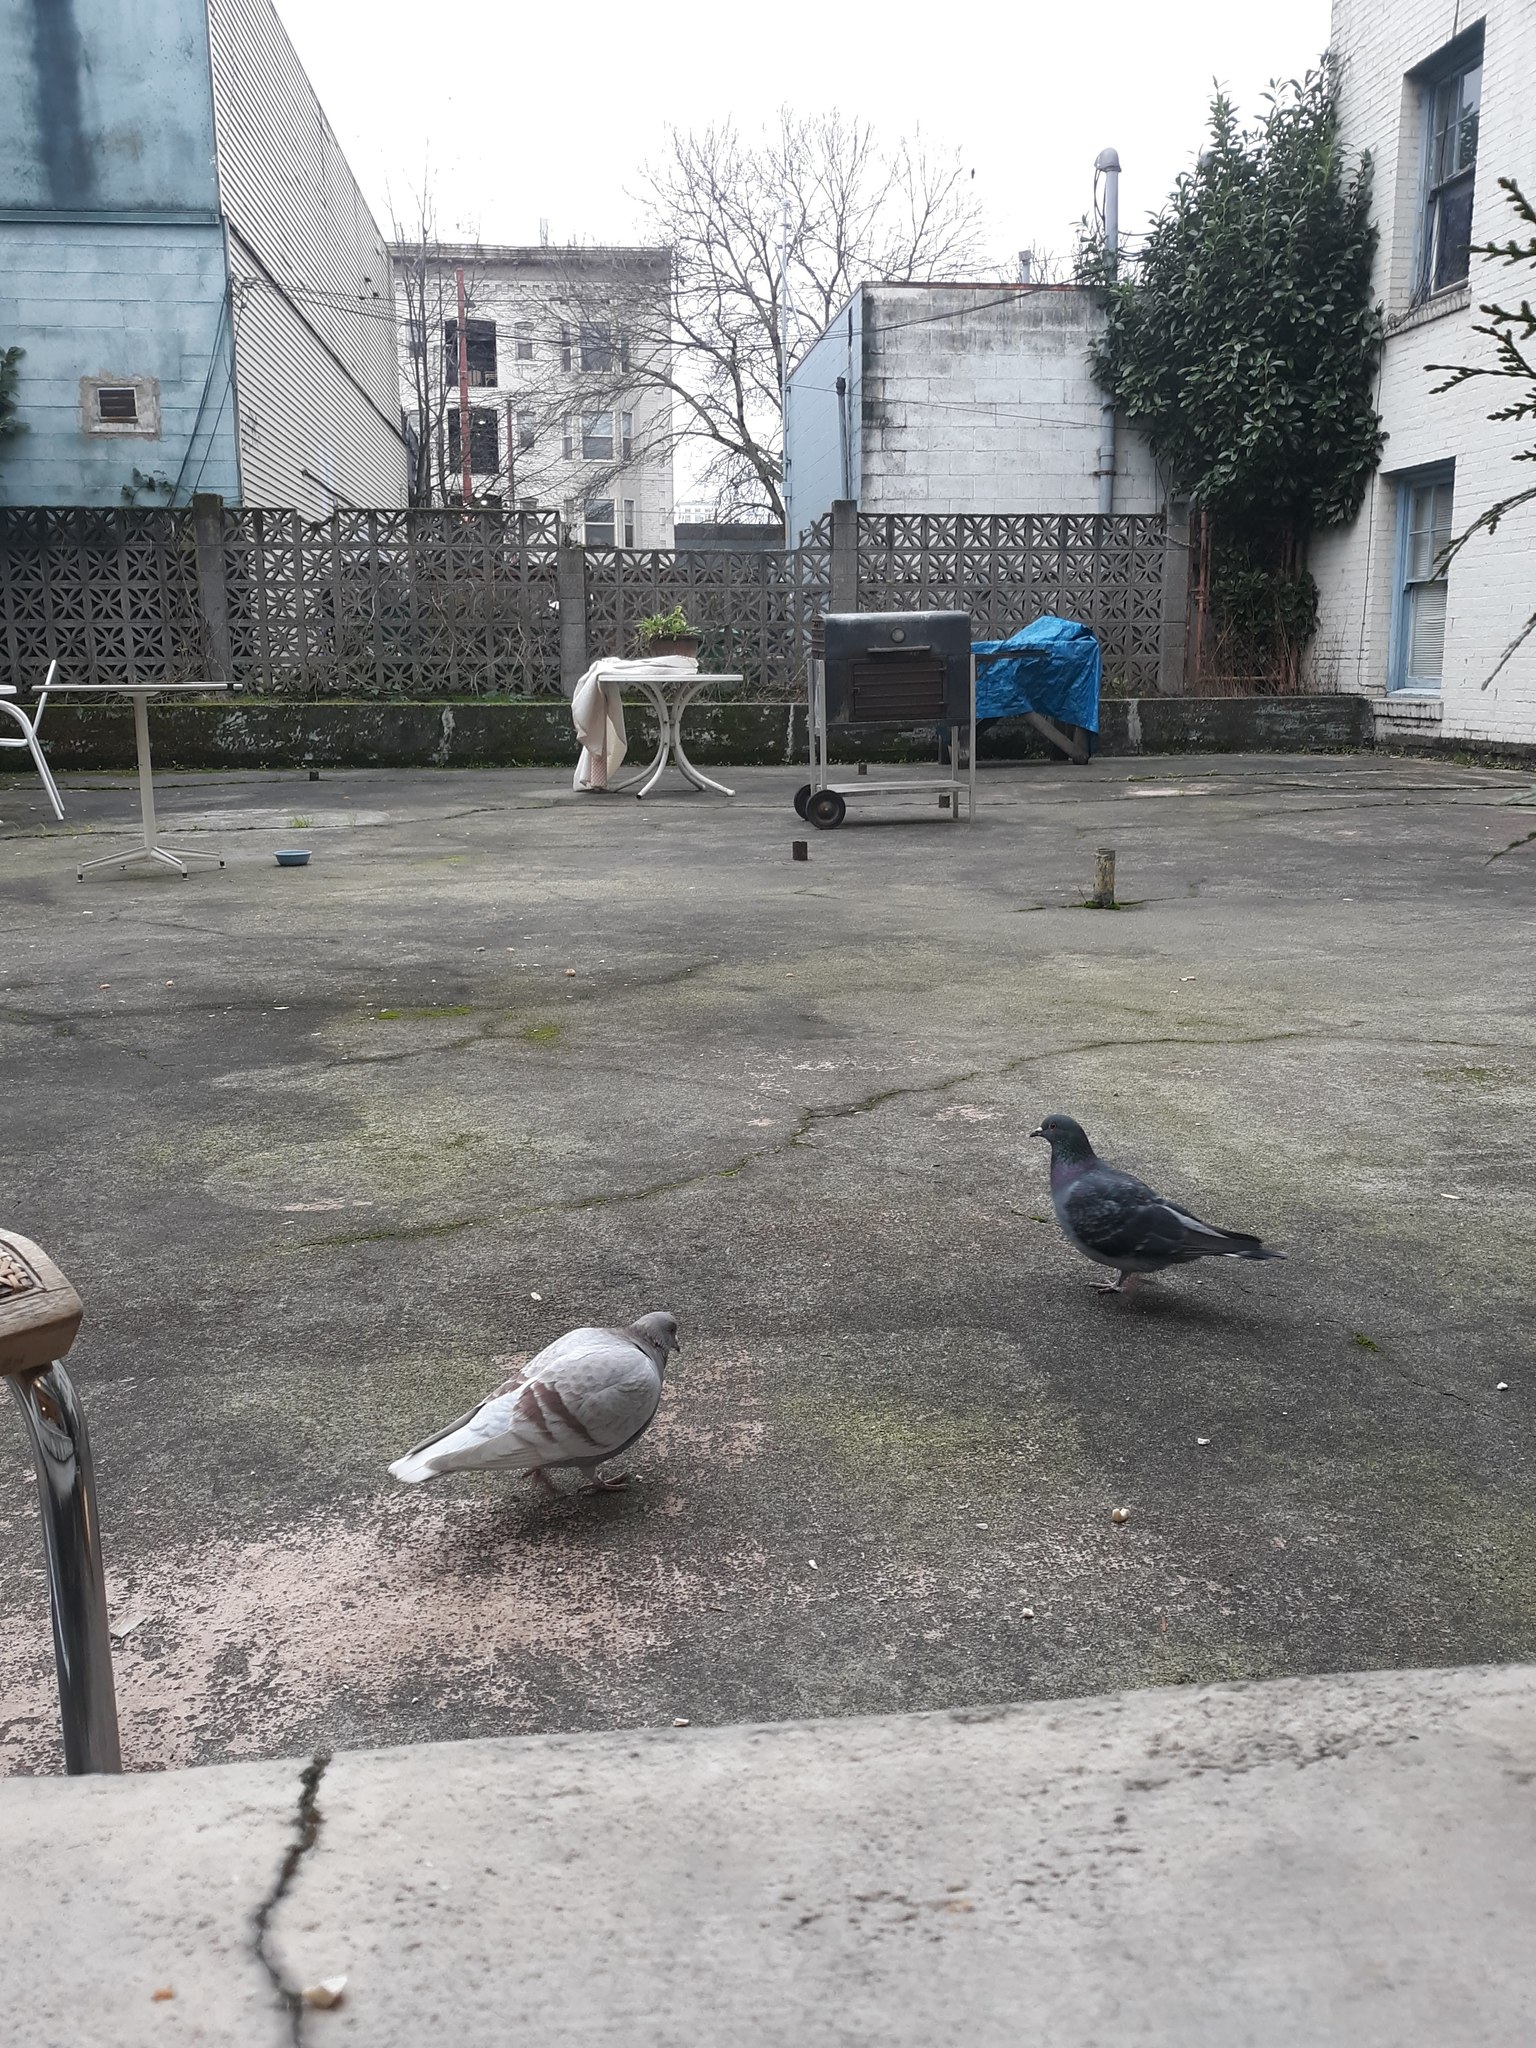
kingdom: Animalia
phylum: Chordata
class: Aves
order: Columbiformes
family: Columbidae
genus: Columba
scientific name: Columba livia
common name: Rock pigeon
